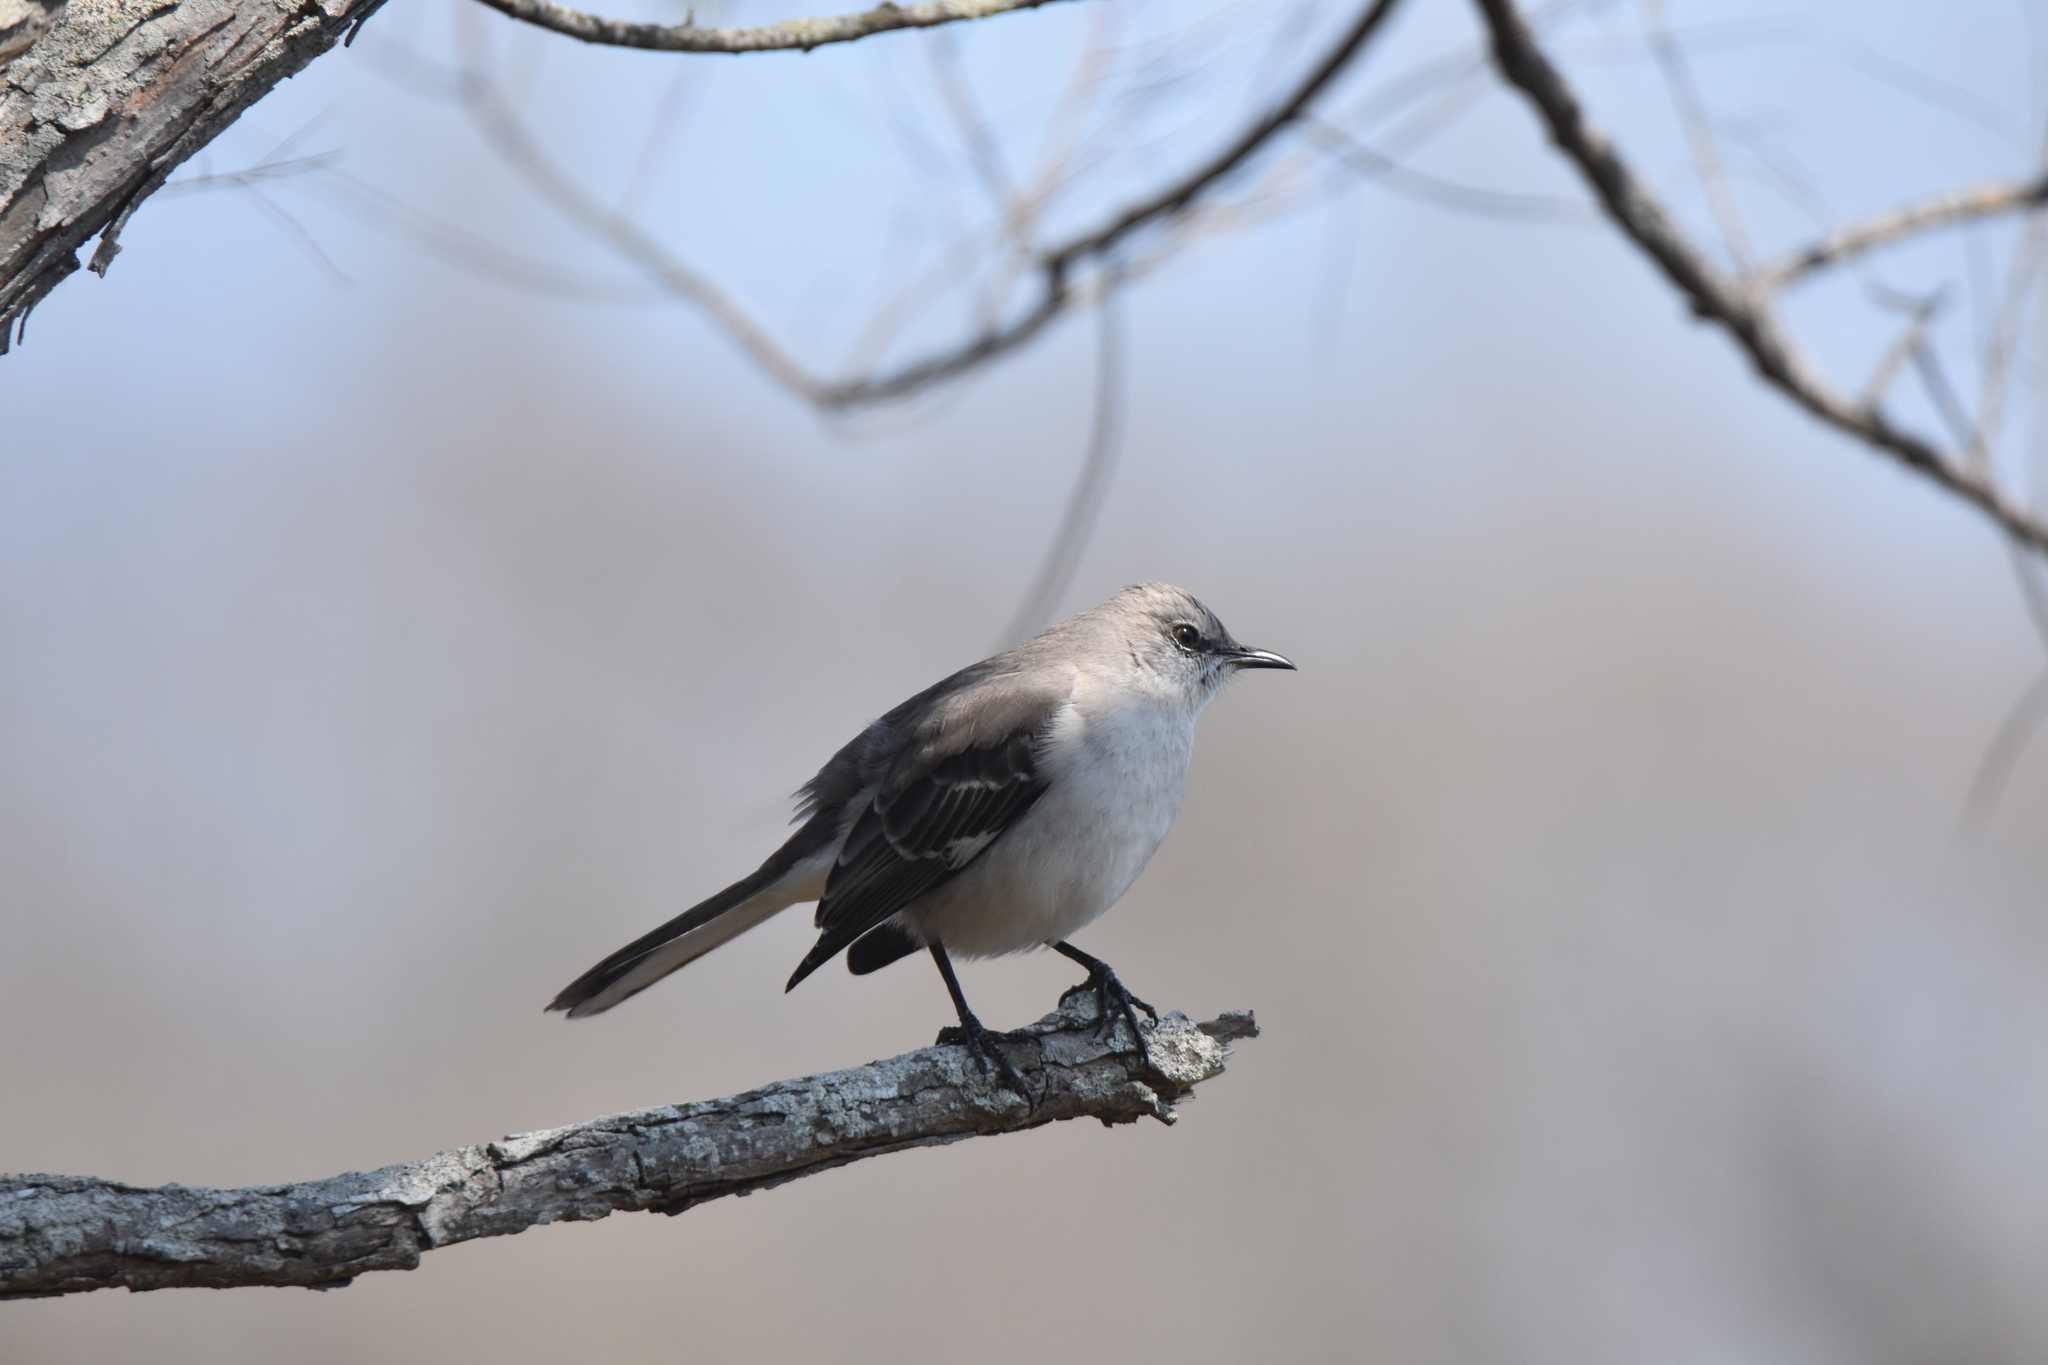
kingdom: Animalia
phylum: Chordata
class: Aves
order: Passeriformes
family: Mimidae
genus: Mimus
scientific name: Mimus polyglottos
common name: Northern mockingbird
